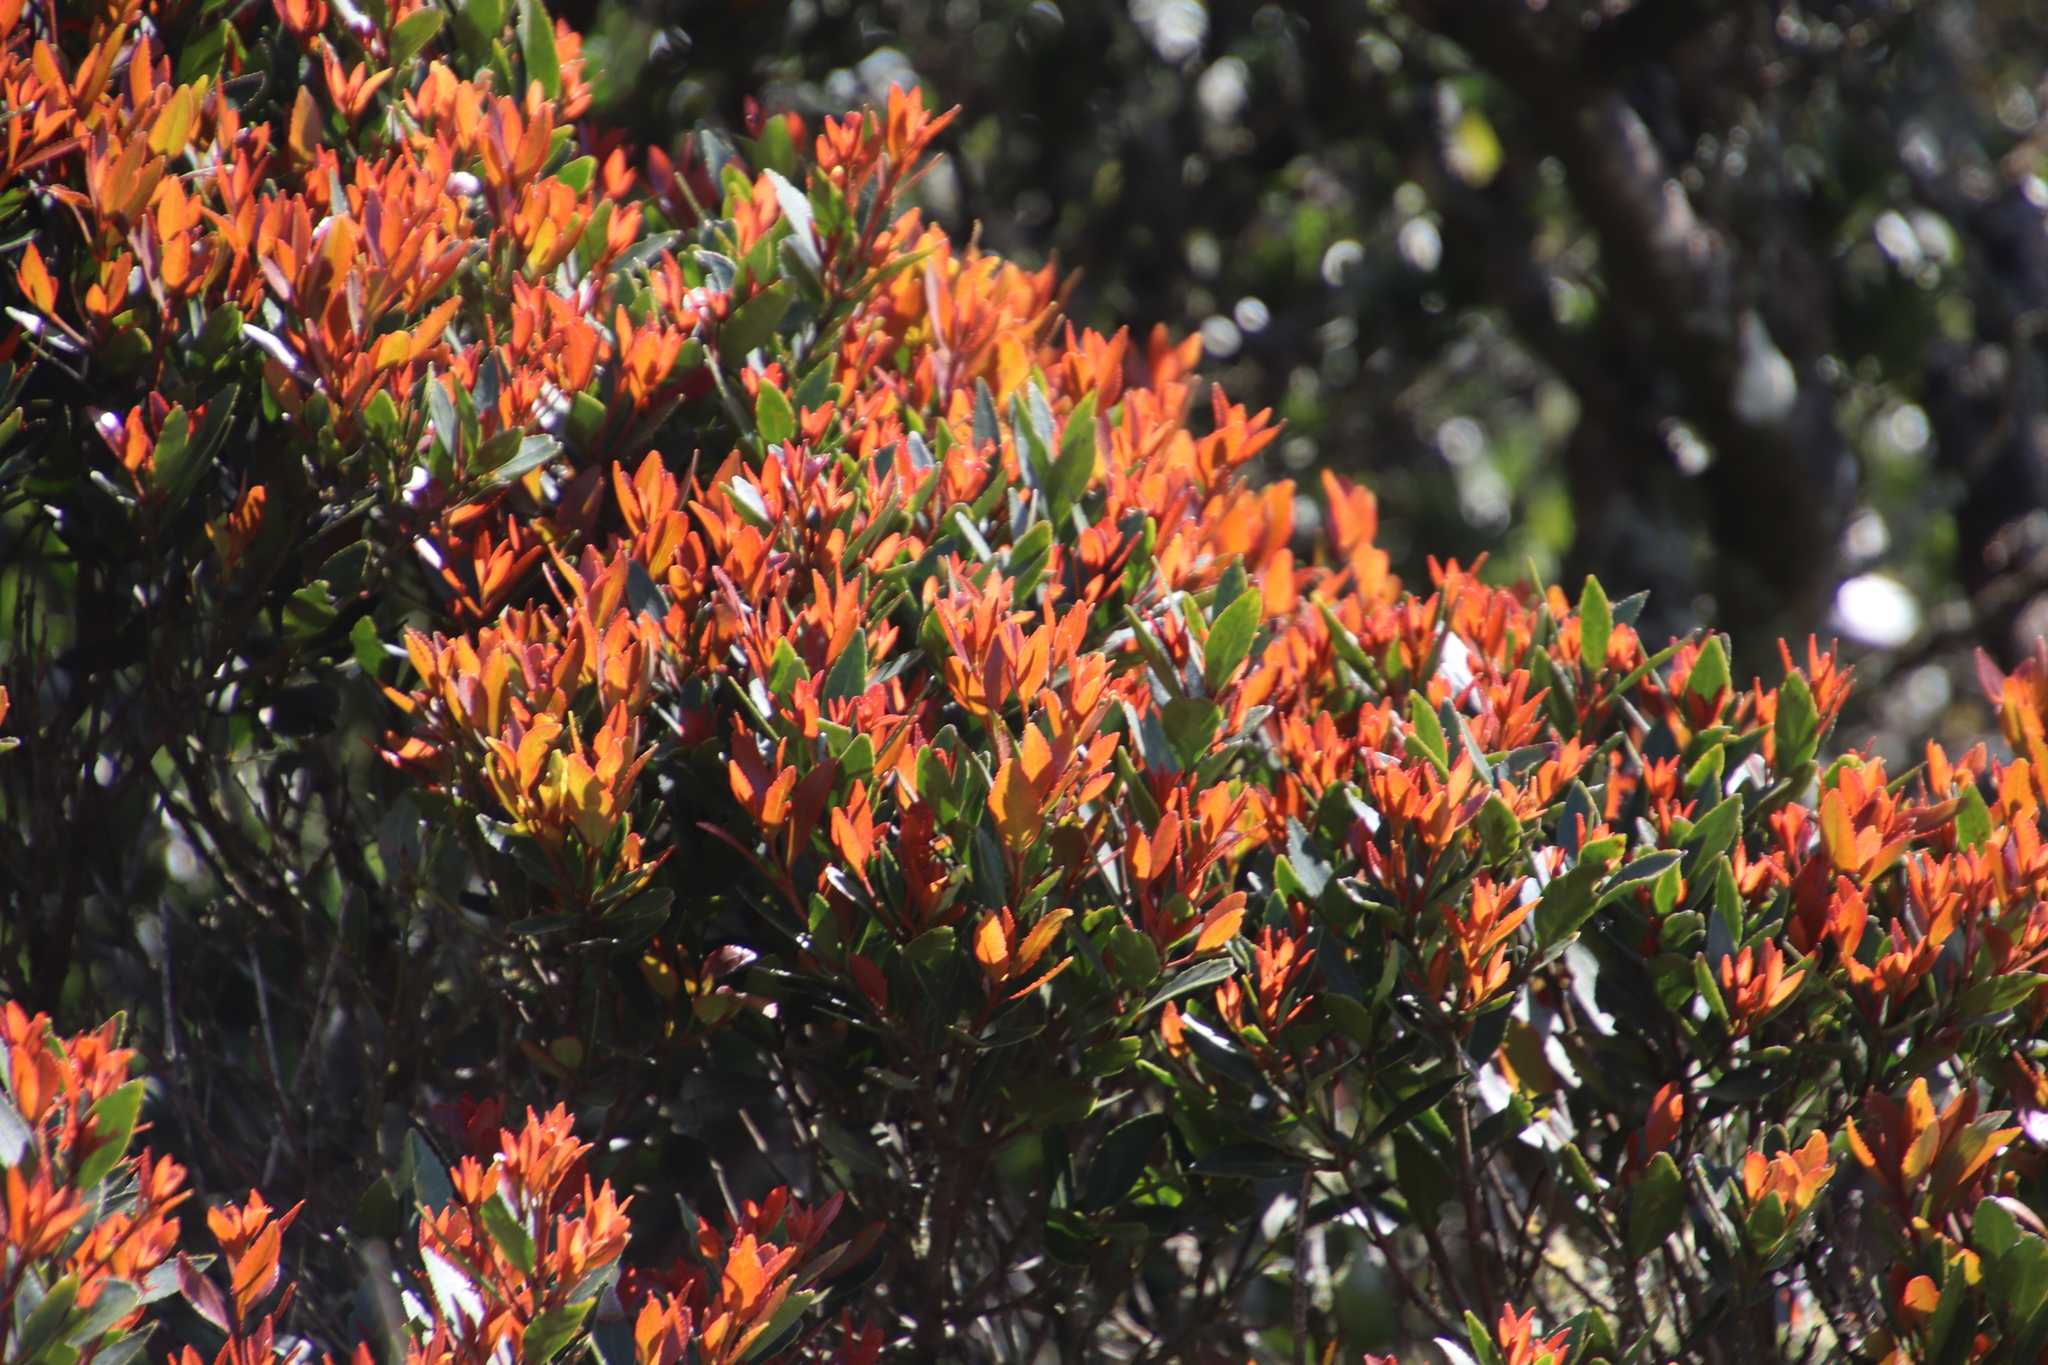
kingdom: Plantae
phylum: Tracheophyta
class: Magnoliopsida
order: Celastrales
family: Celastraceae
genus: Elaeodendron
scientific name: Elaeodendron schinoides
